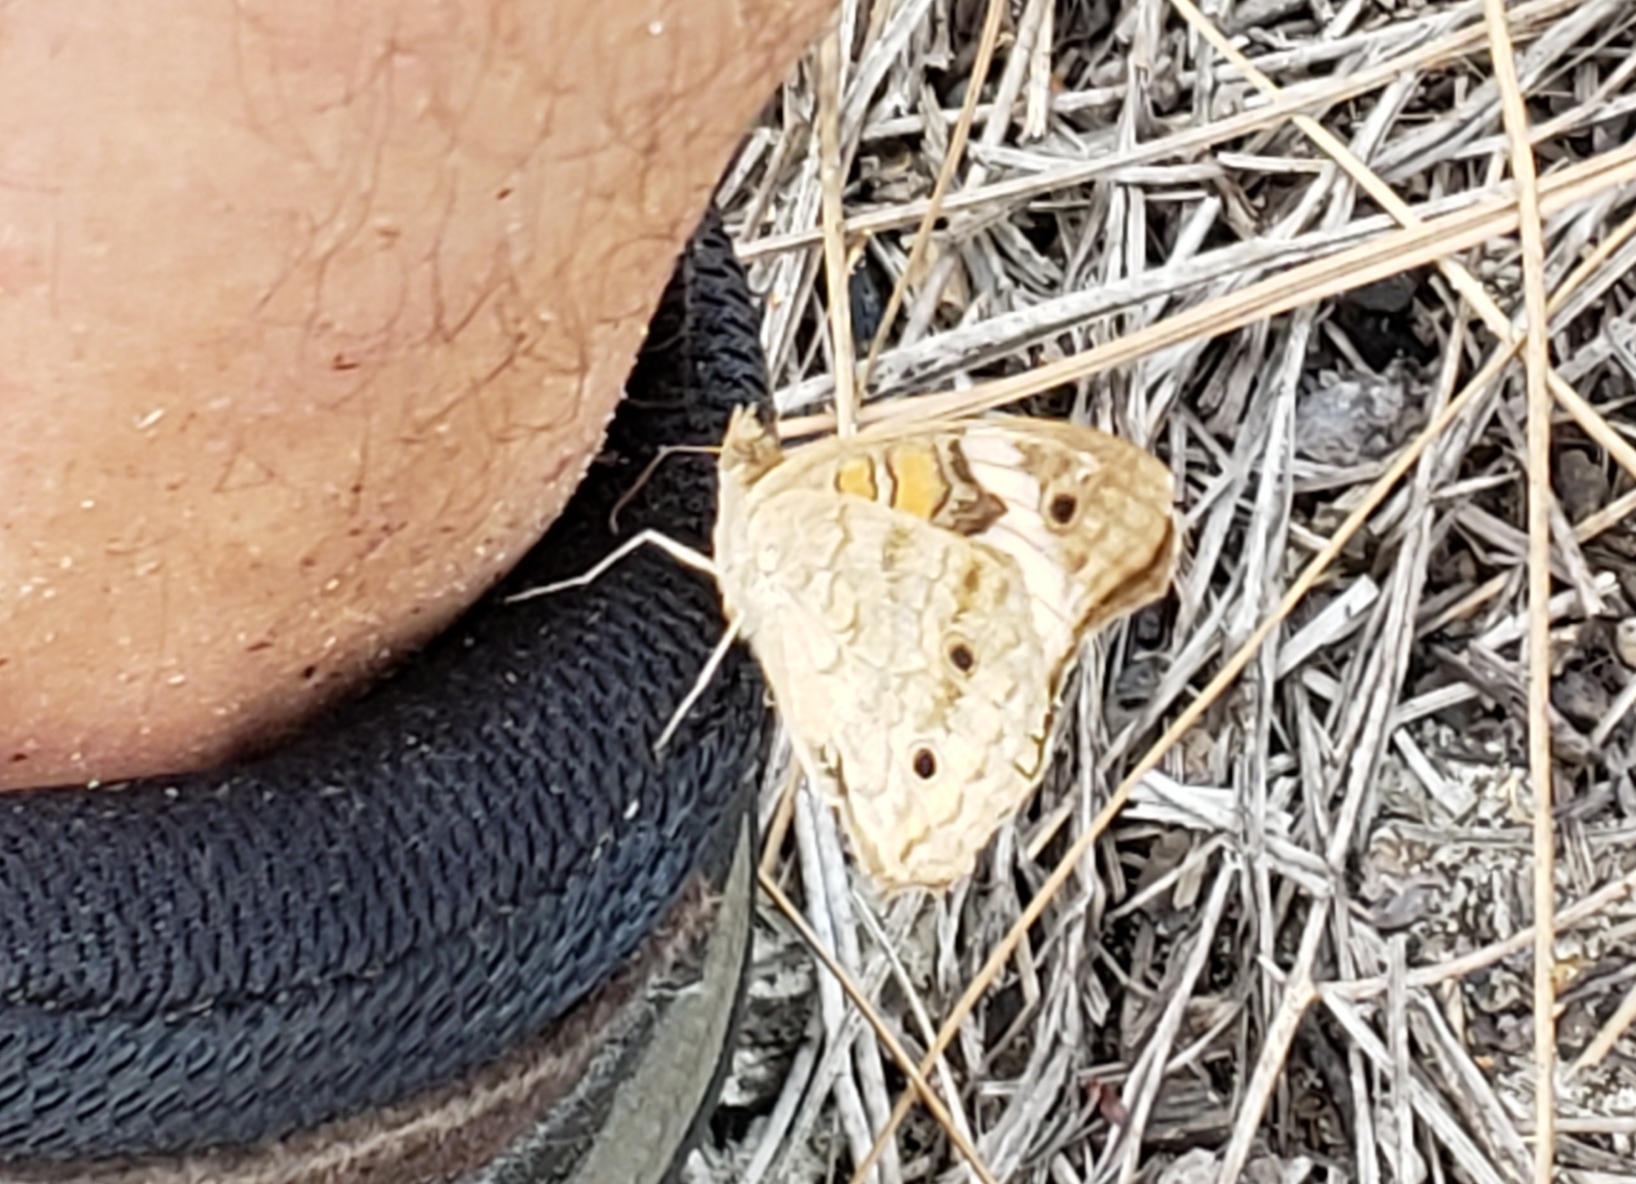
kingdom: Animalia
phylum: Arthropoda
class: Insecta
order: Lepidoptera
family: Nymphalidae
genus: Junonia
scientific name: Junonia coenia
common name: Common buckeye
